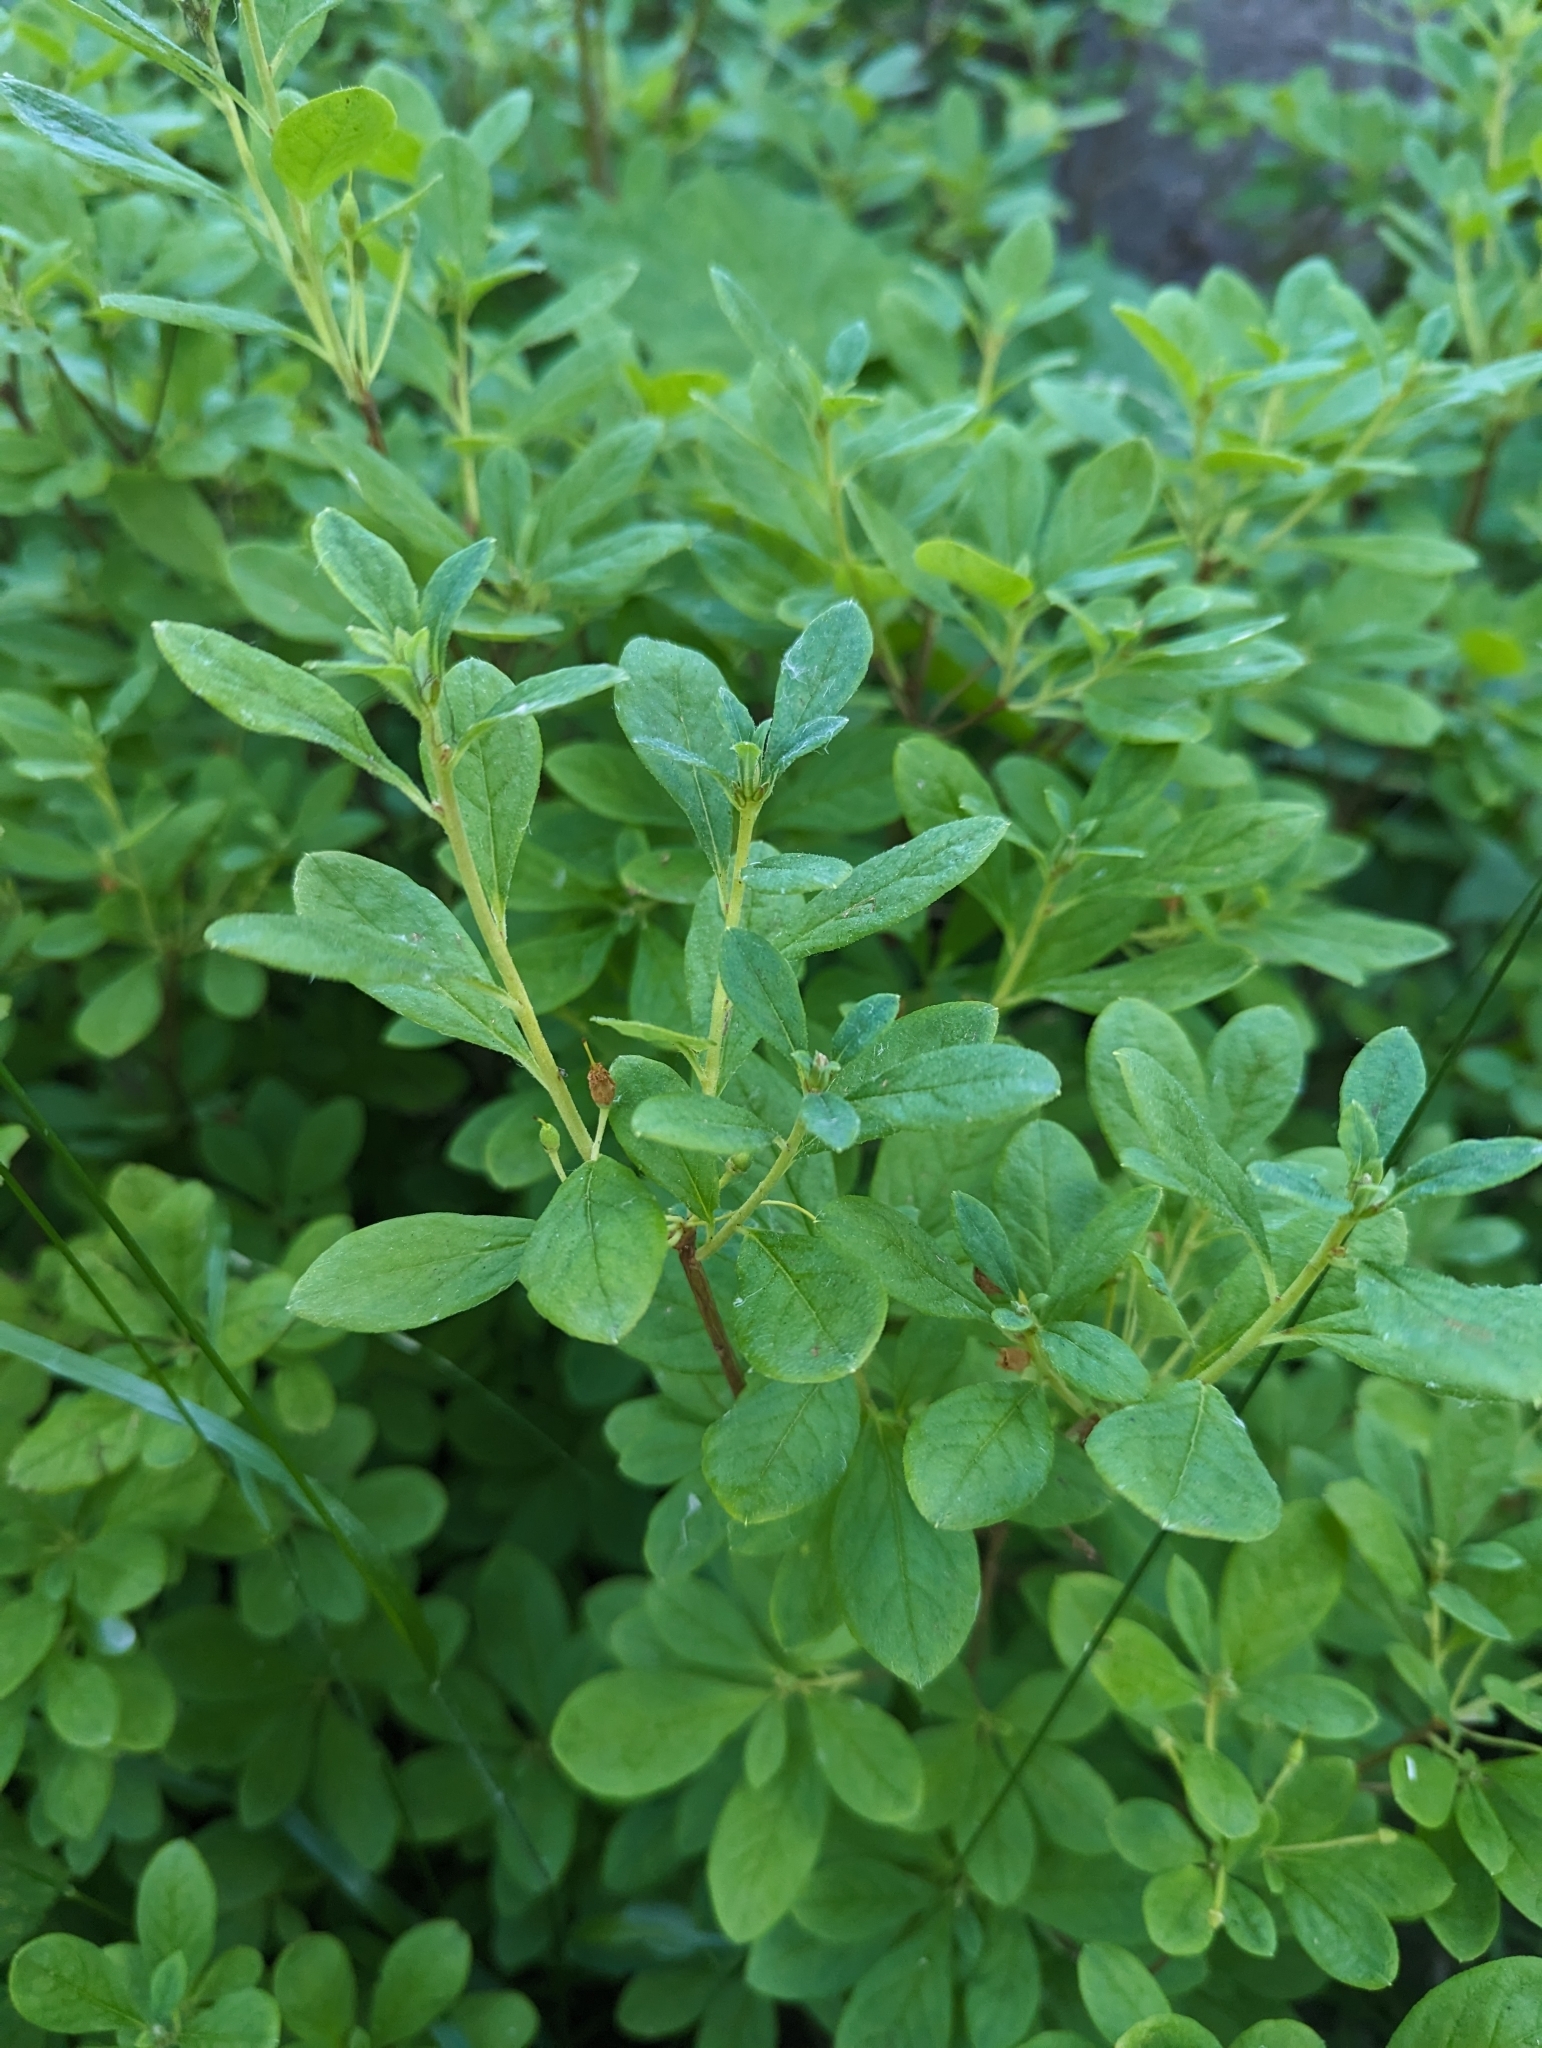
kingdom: Plantae
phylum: Tracheophyta
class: Magnoliopsida
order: Ericales
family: Ericaceae
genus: Rhododendron
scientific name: Rhododendron menziesii
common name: Pacific menziesia
